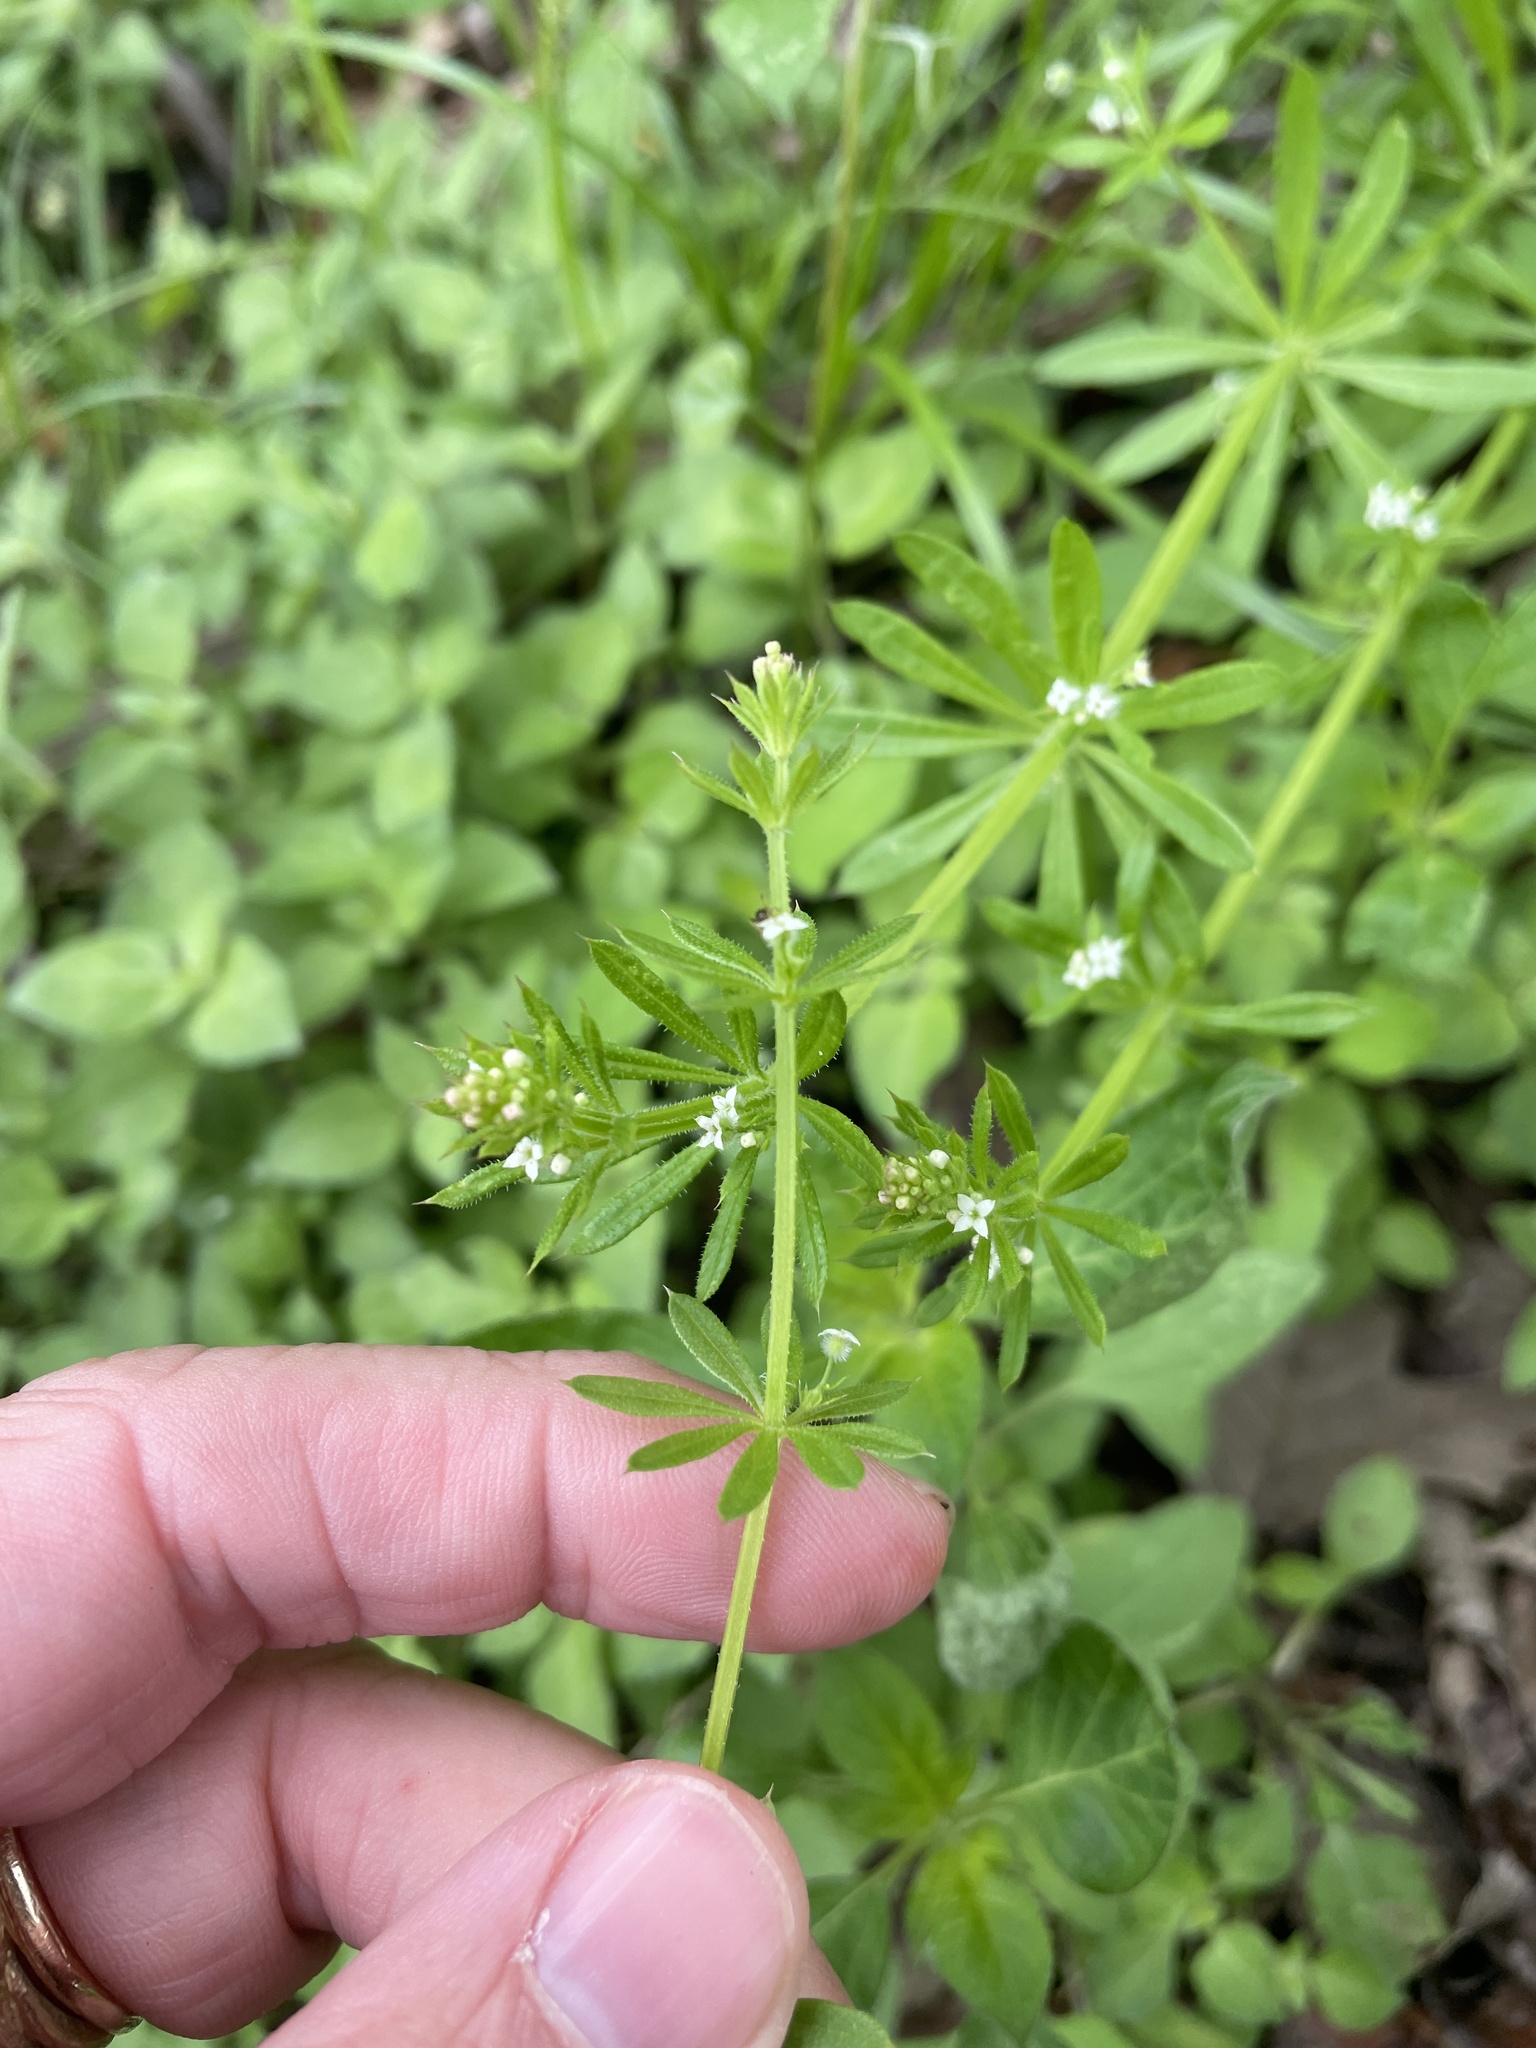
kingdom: Plantae
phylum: Tracheophyta
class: Magnoliopsida
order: Gentianales
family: Rubiaceae
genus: Galium
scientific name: Galium aparine
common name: Cleavers
